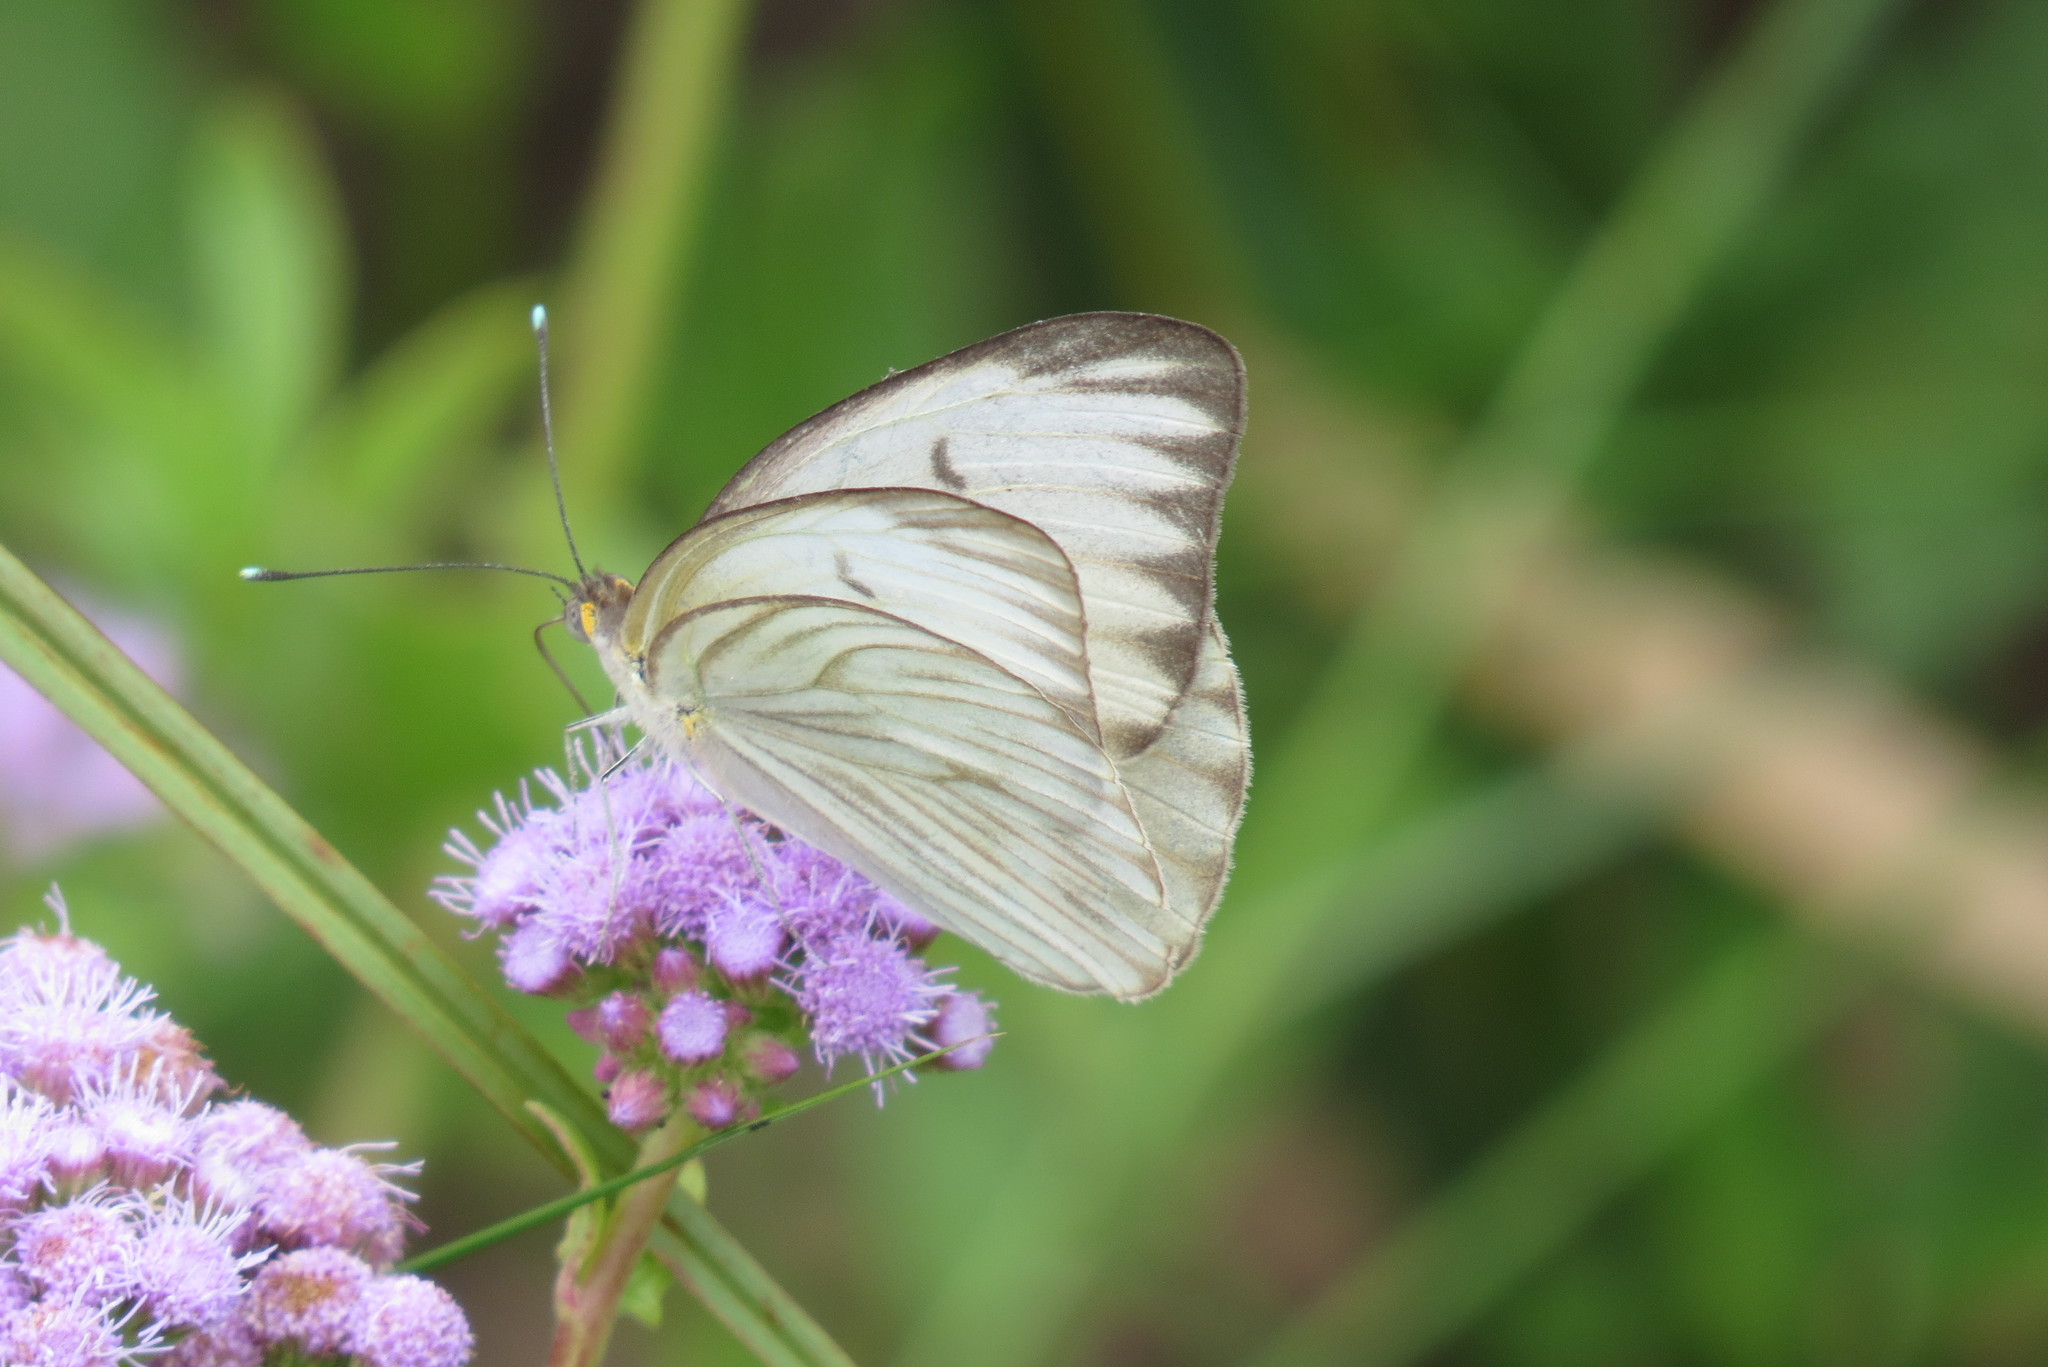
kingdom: Animalia
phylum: Arthropoda
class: Insecta
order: Lepidoptera
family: Pieridae
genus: Ascia
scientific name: Ascia monuste
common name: Great southern white
